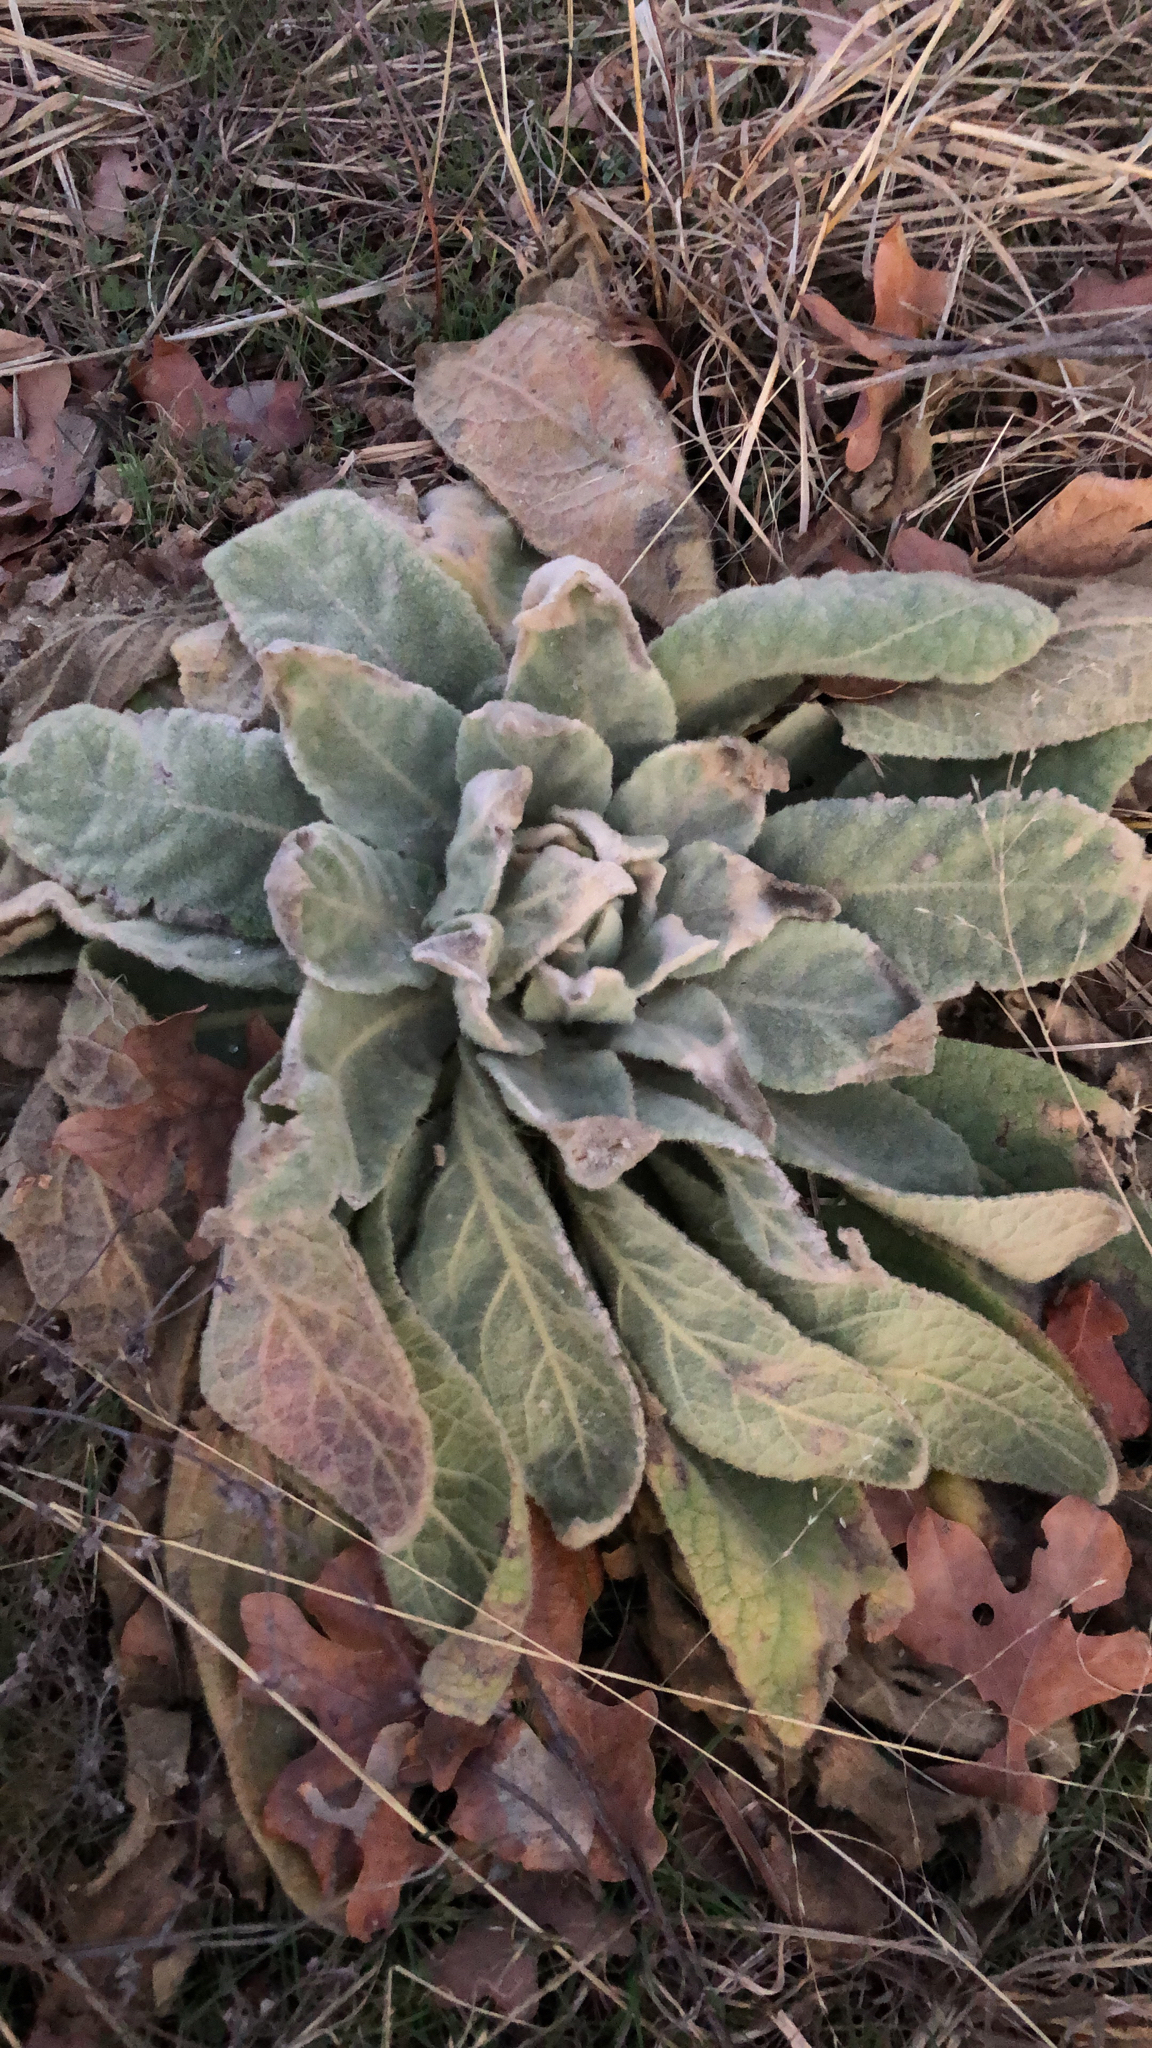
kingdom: Plantae
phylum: Tracheophyta
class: Magnoliopsida
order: Lamiales
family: Scrophulariaceae
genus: Verbascum
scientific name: Verbascum thapsus
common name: Common mullein
